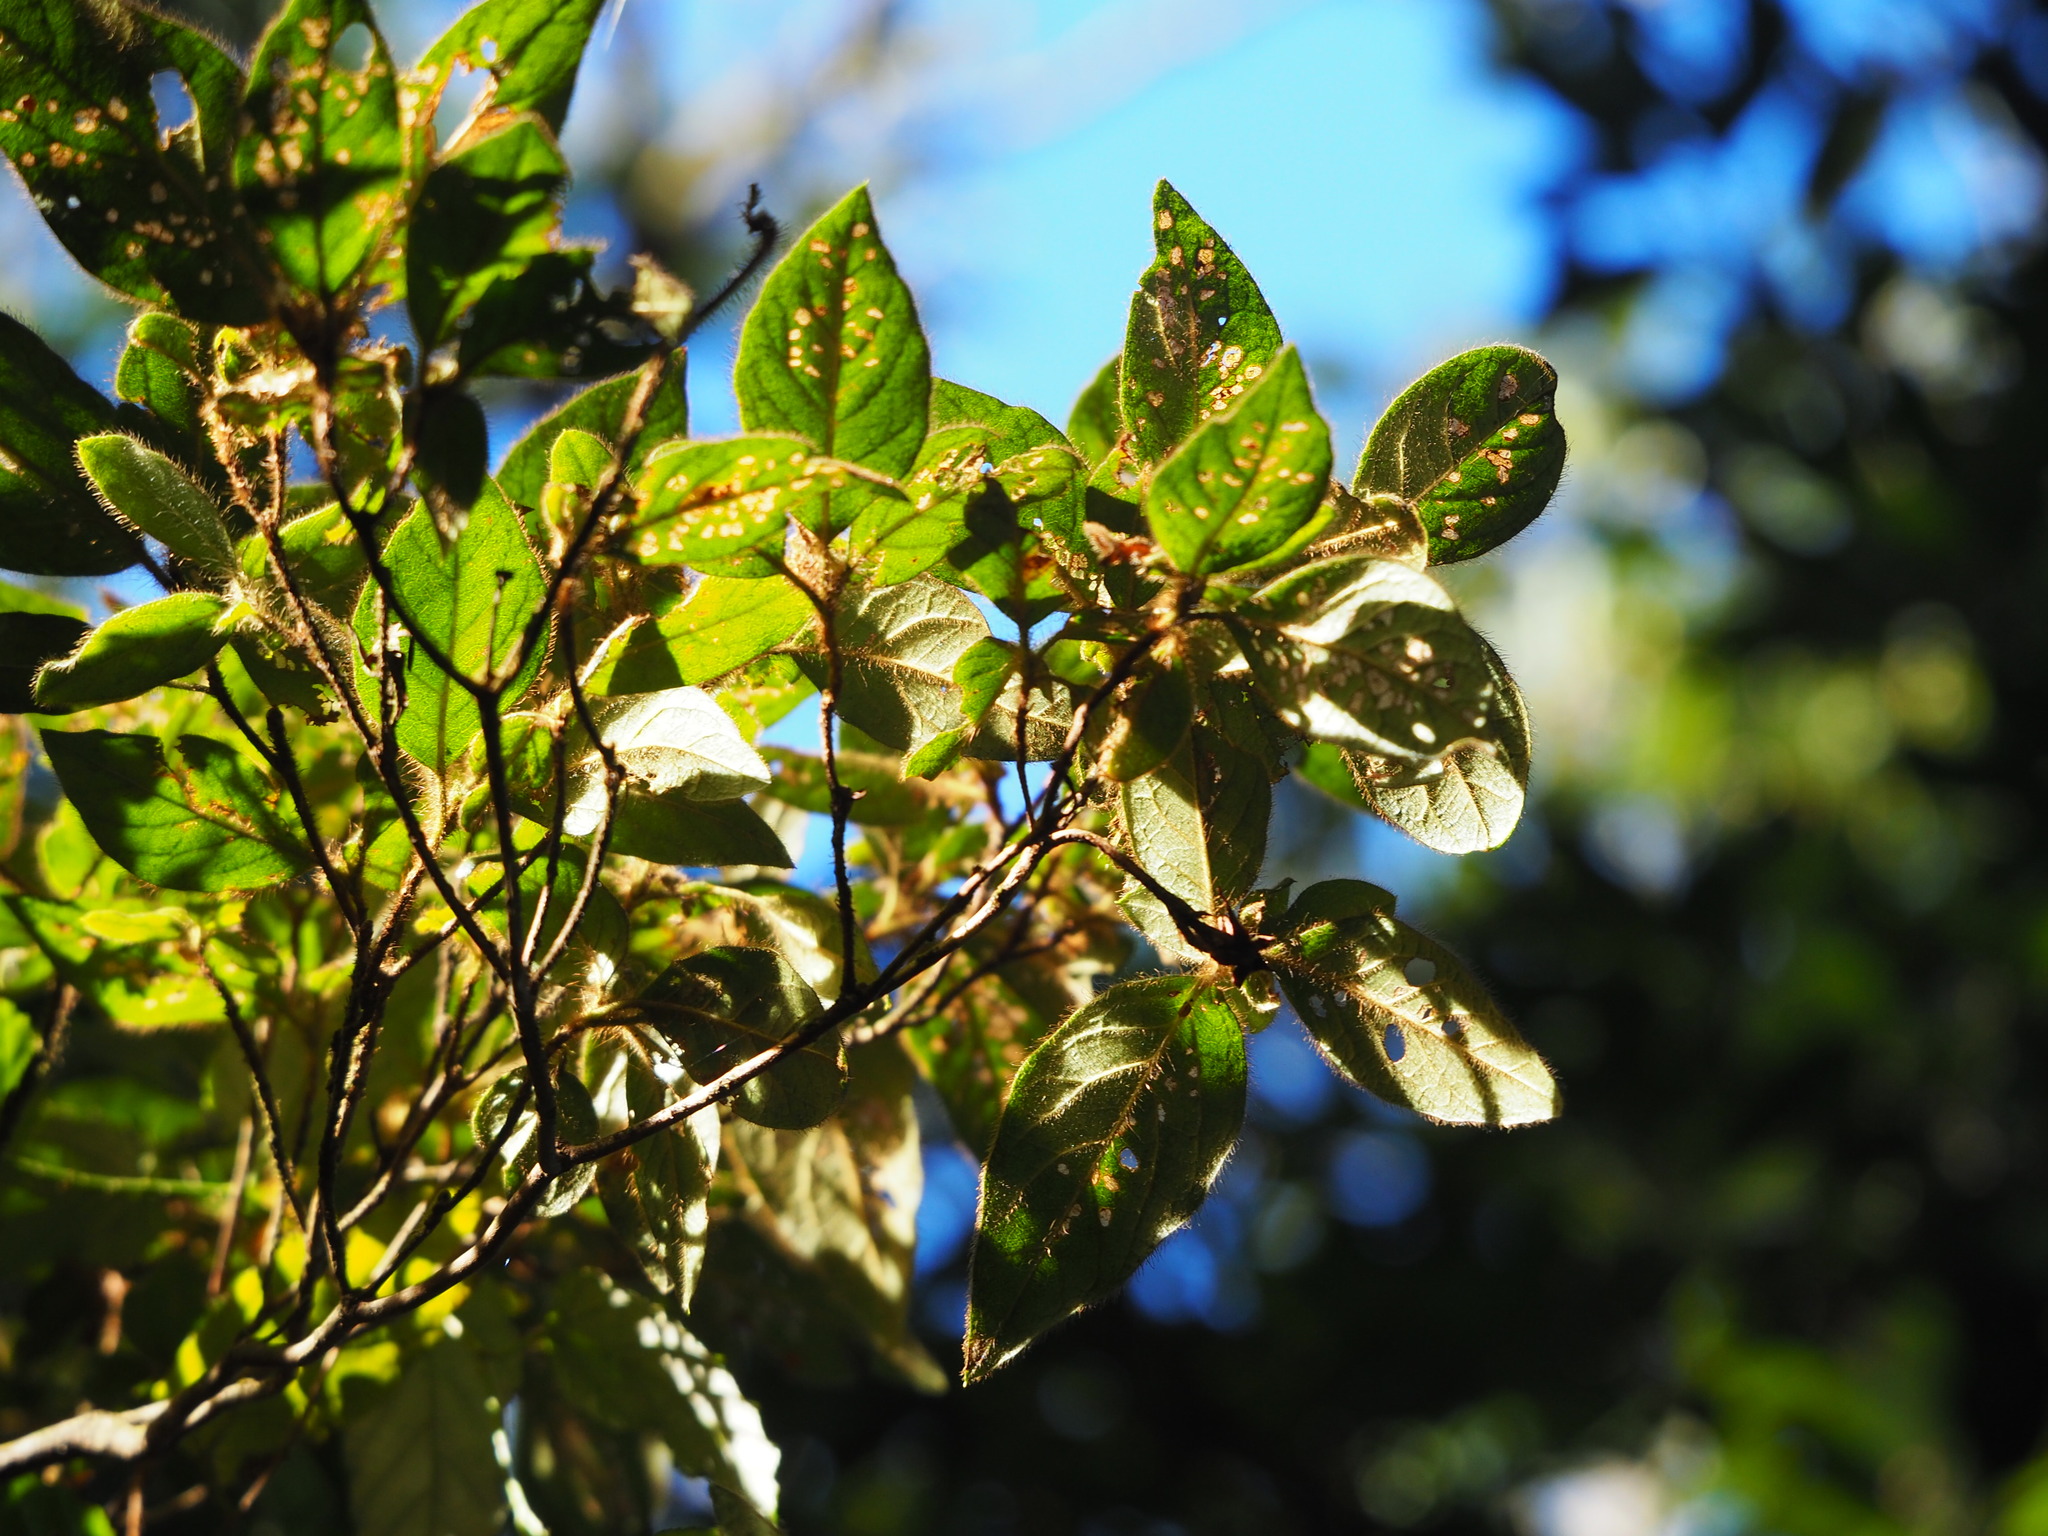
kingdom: Plantae
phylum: Tracheophyta
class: Magnoliopsida
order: Ericales
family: Ericaceae
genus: Rhododendron
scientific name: Rhododendron oldhamii
